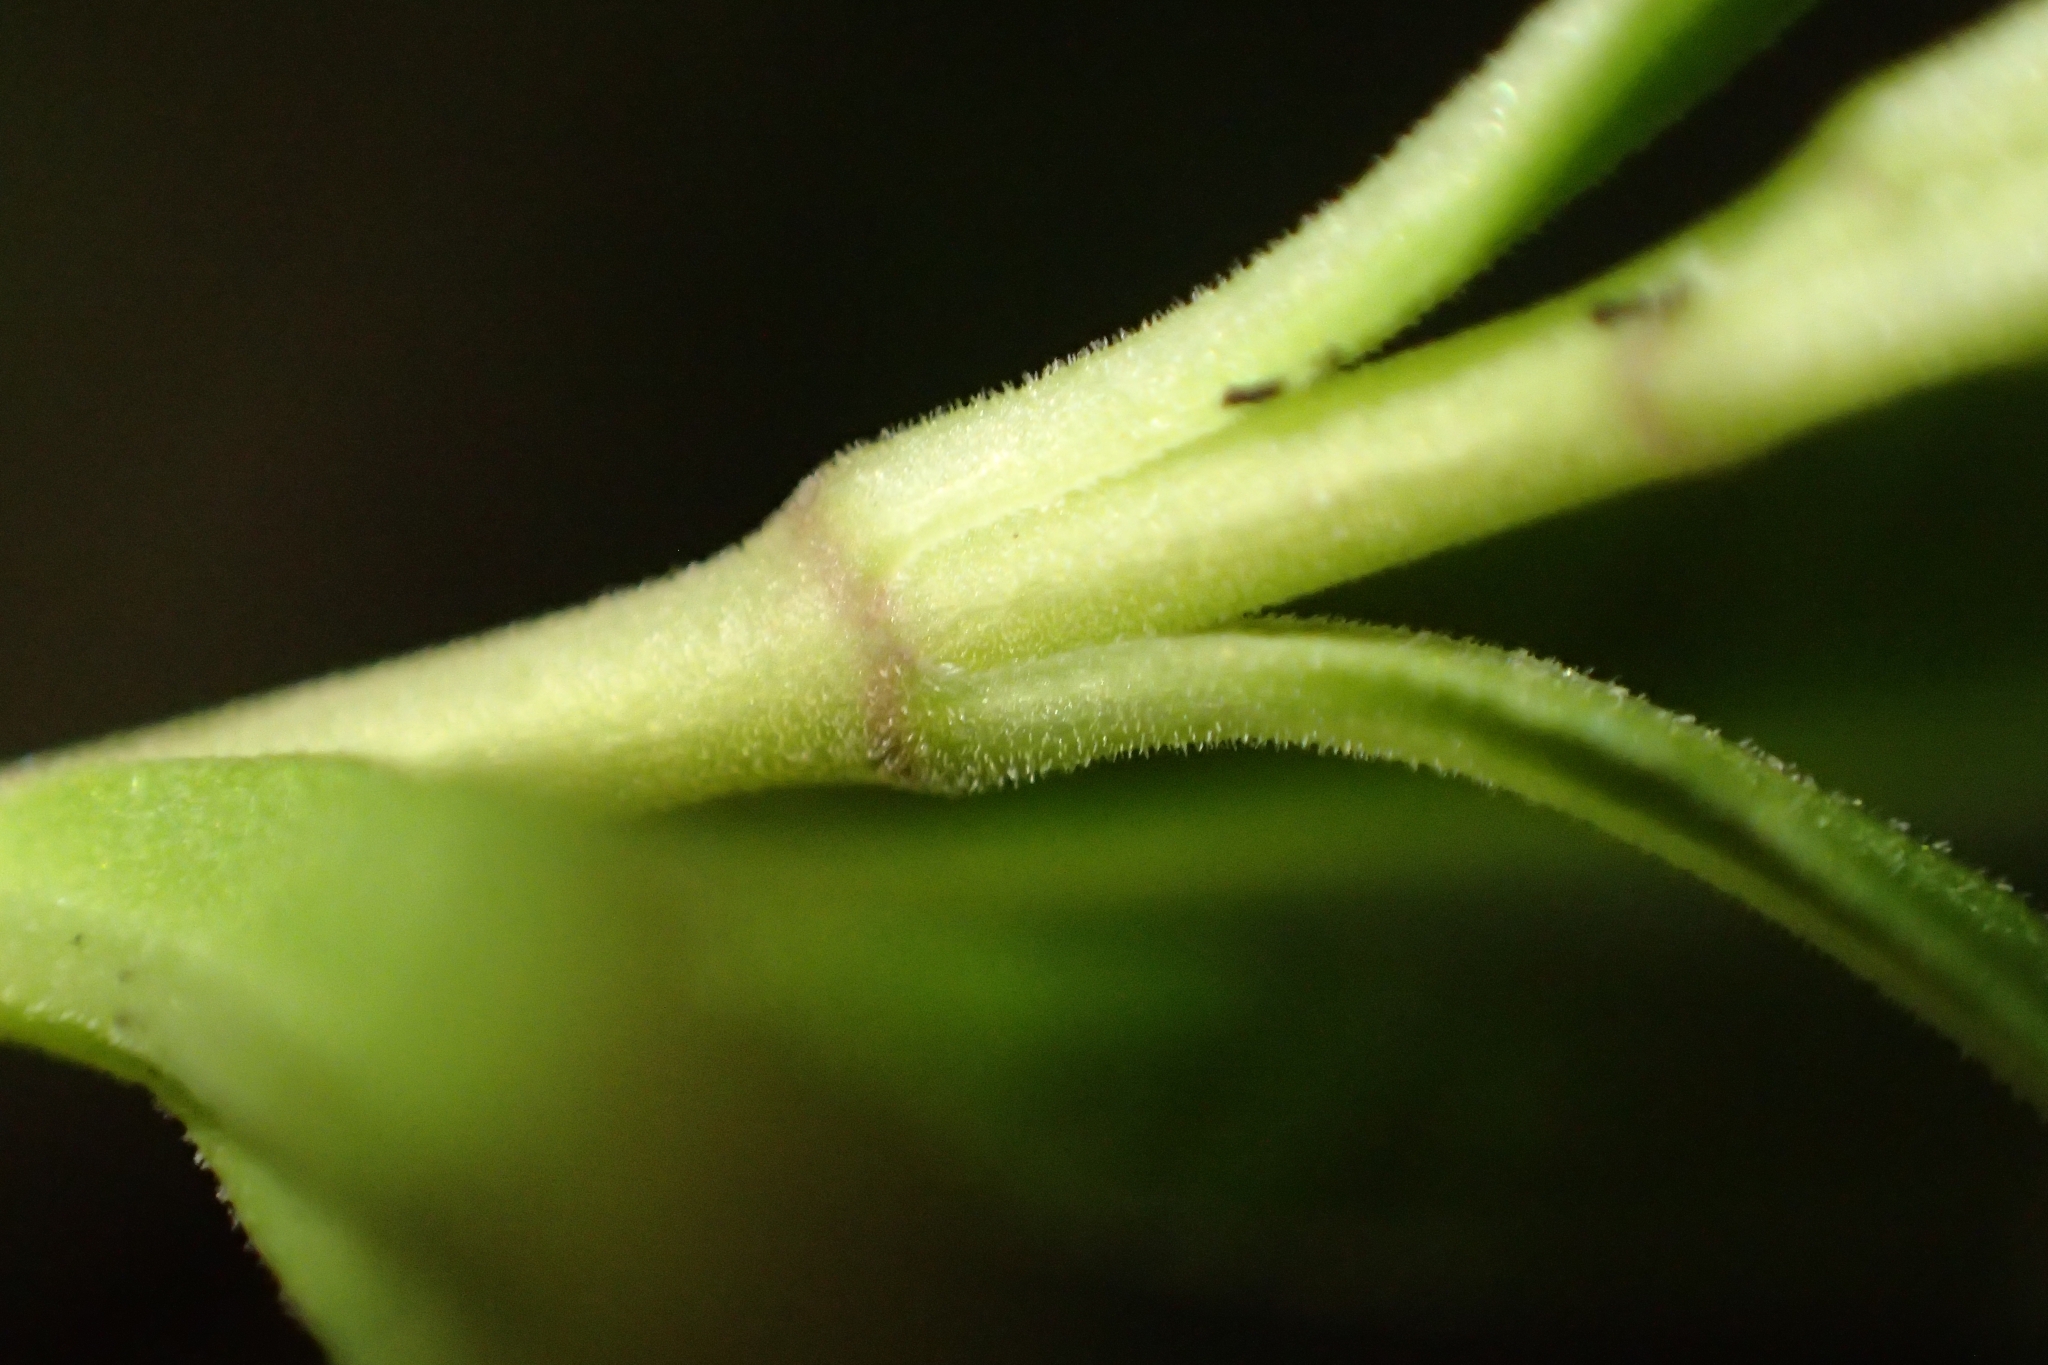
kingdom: Plantae
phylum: Tracheophyta
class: Magnoliopsida
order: Lamiales
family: Plantaginaceae
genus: Veronica
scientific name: Veronica leiophylla
